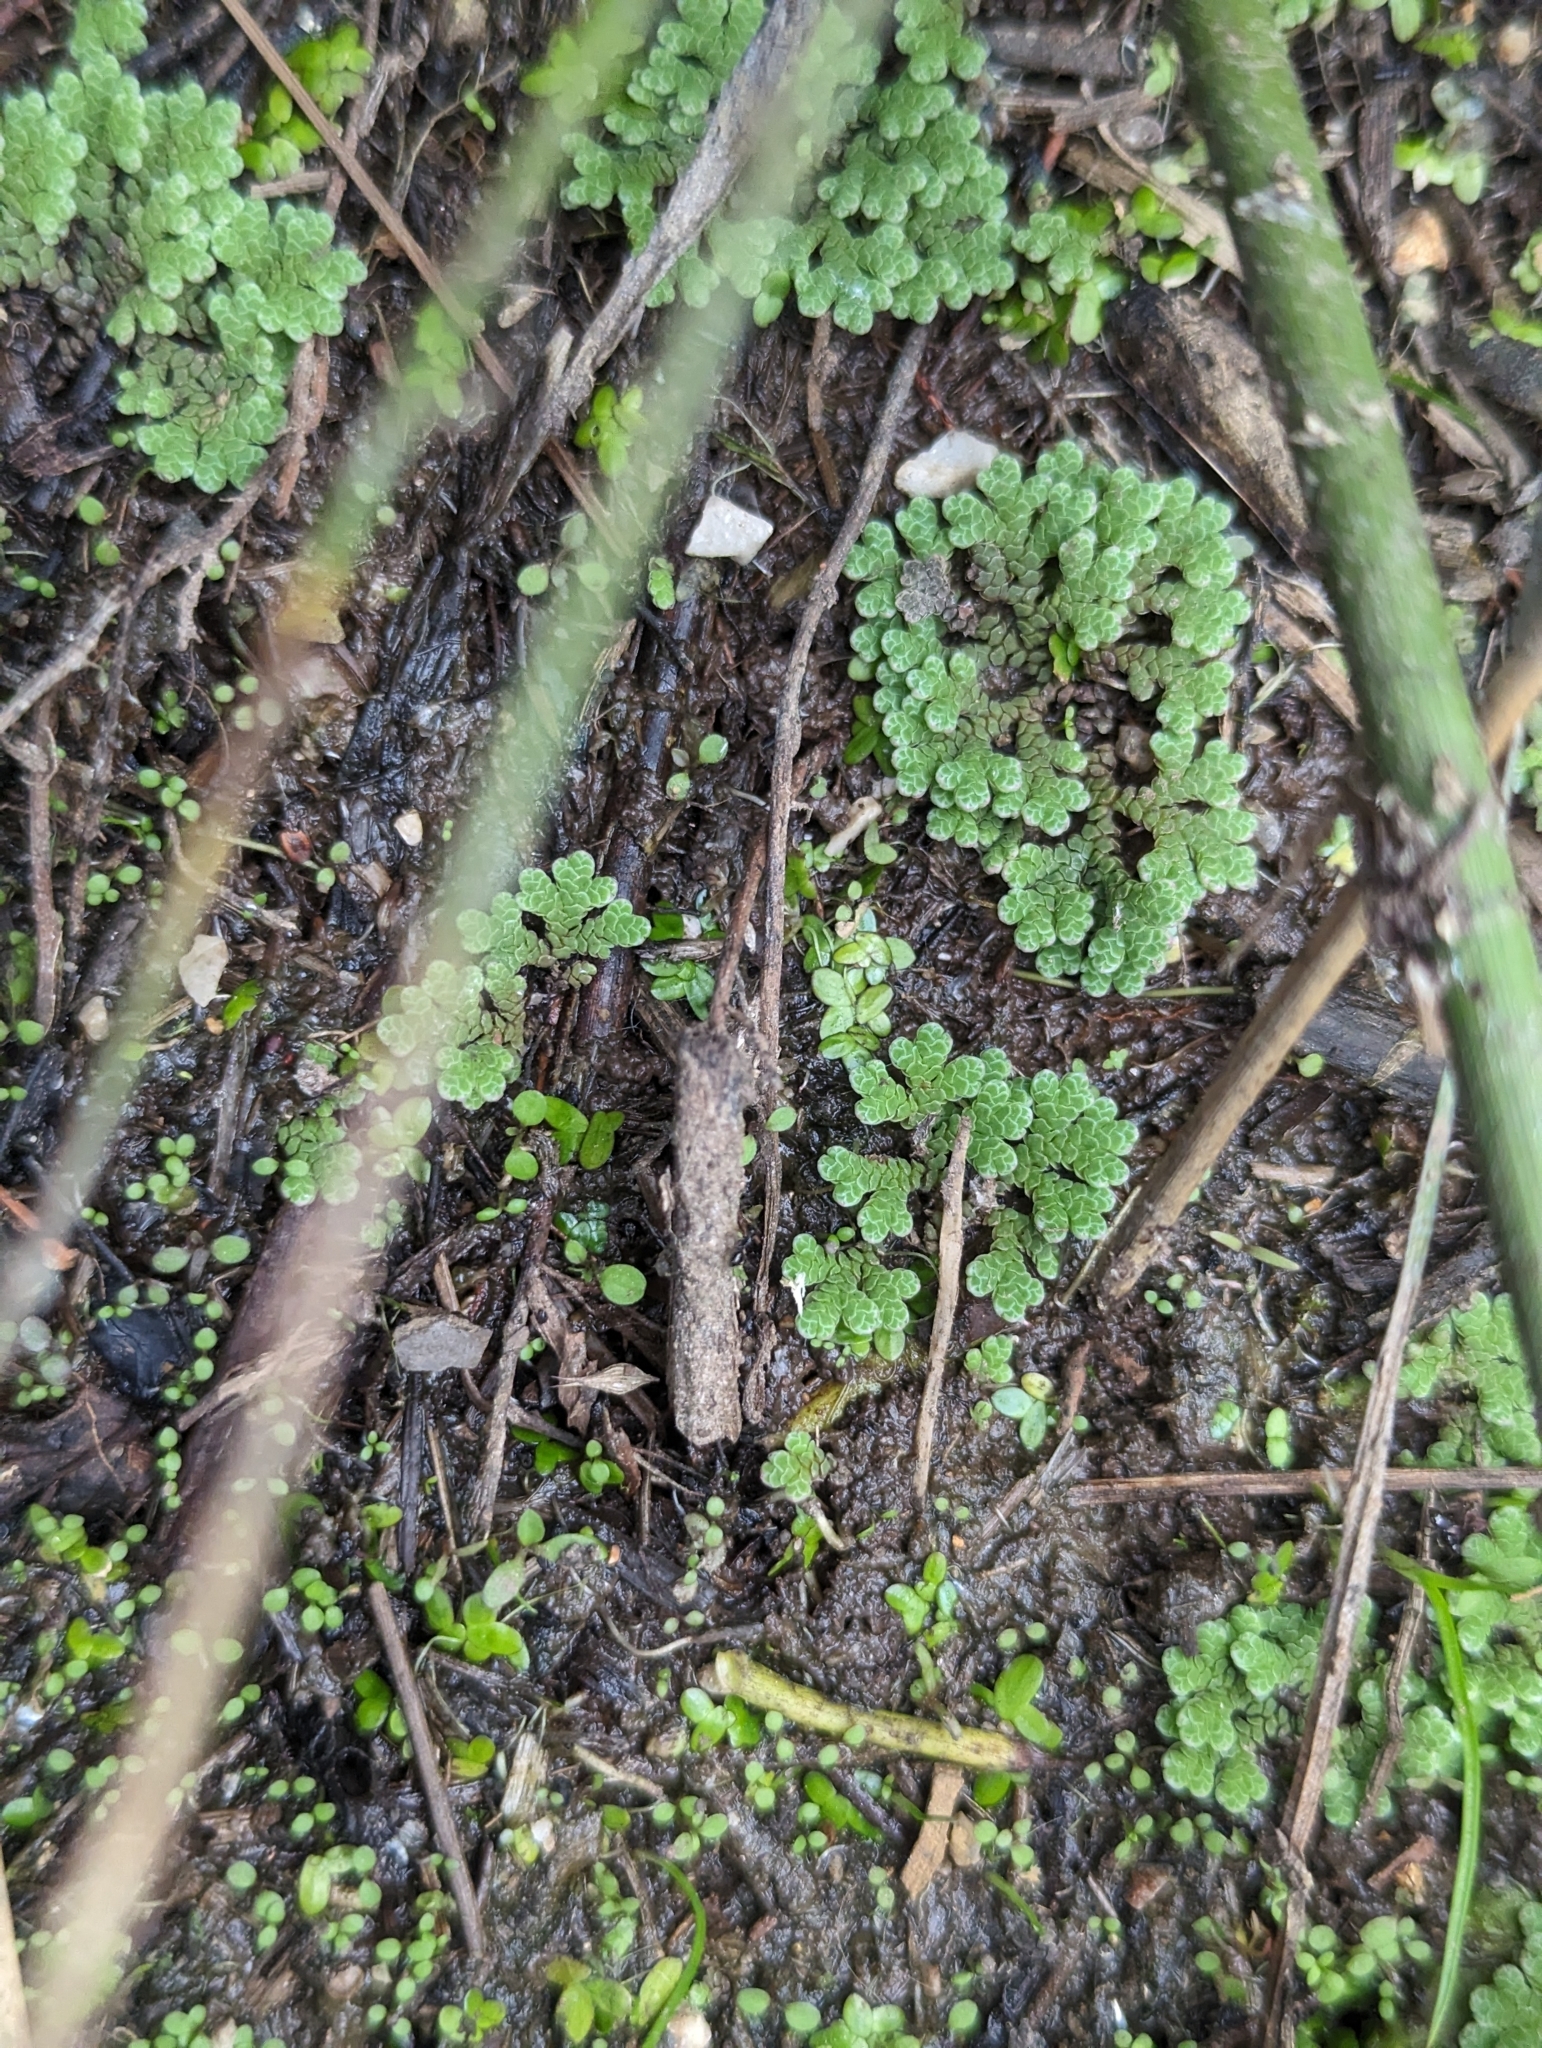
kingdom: Plantae
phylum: Tracheophyta
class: Polypodiopsida
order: Salviniales
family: Salviniaceae
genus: Azolla
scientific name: Azolla rubra
